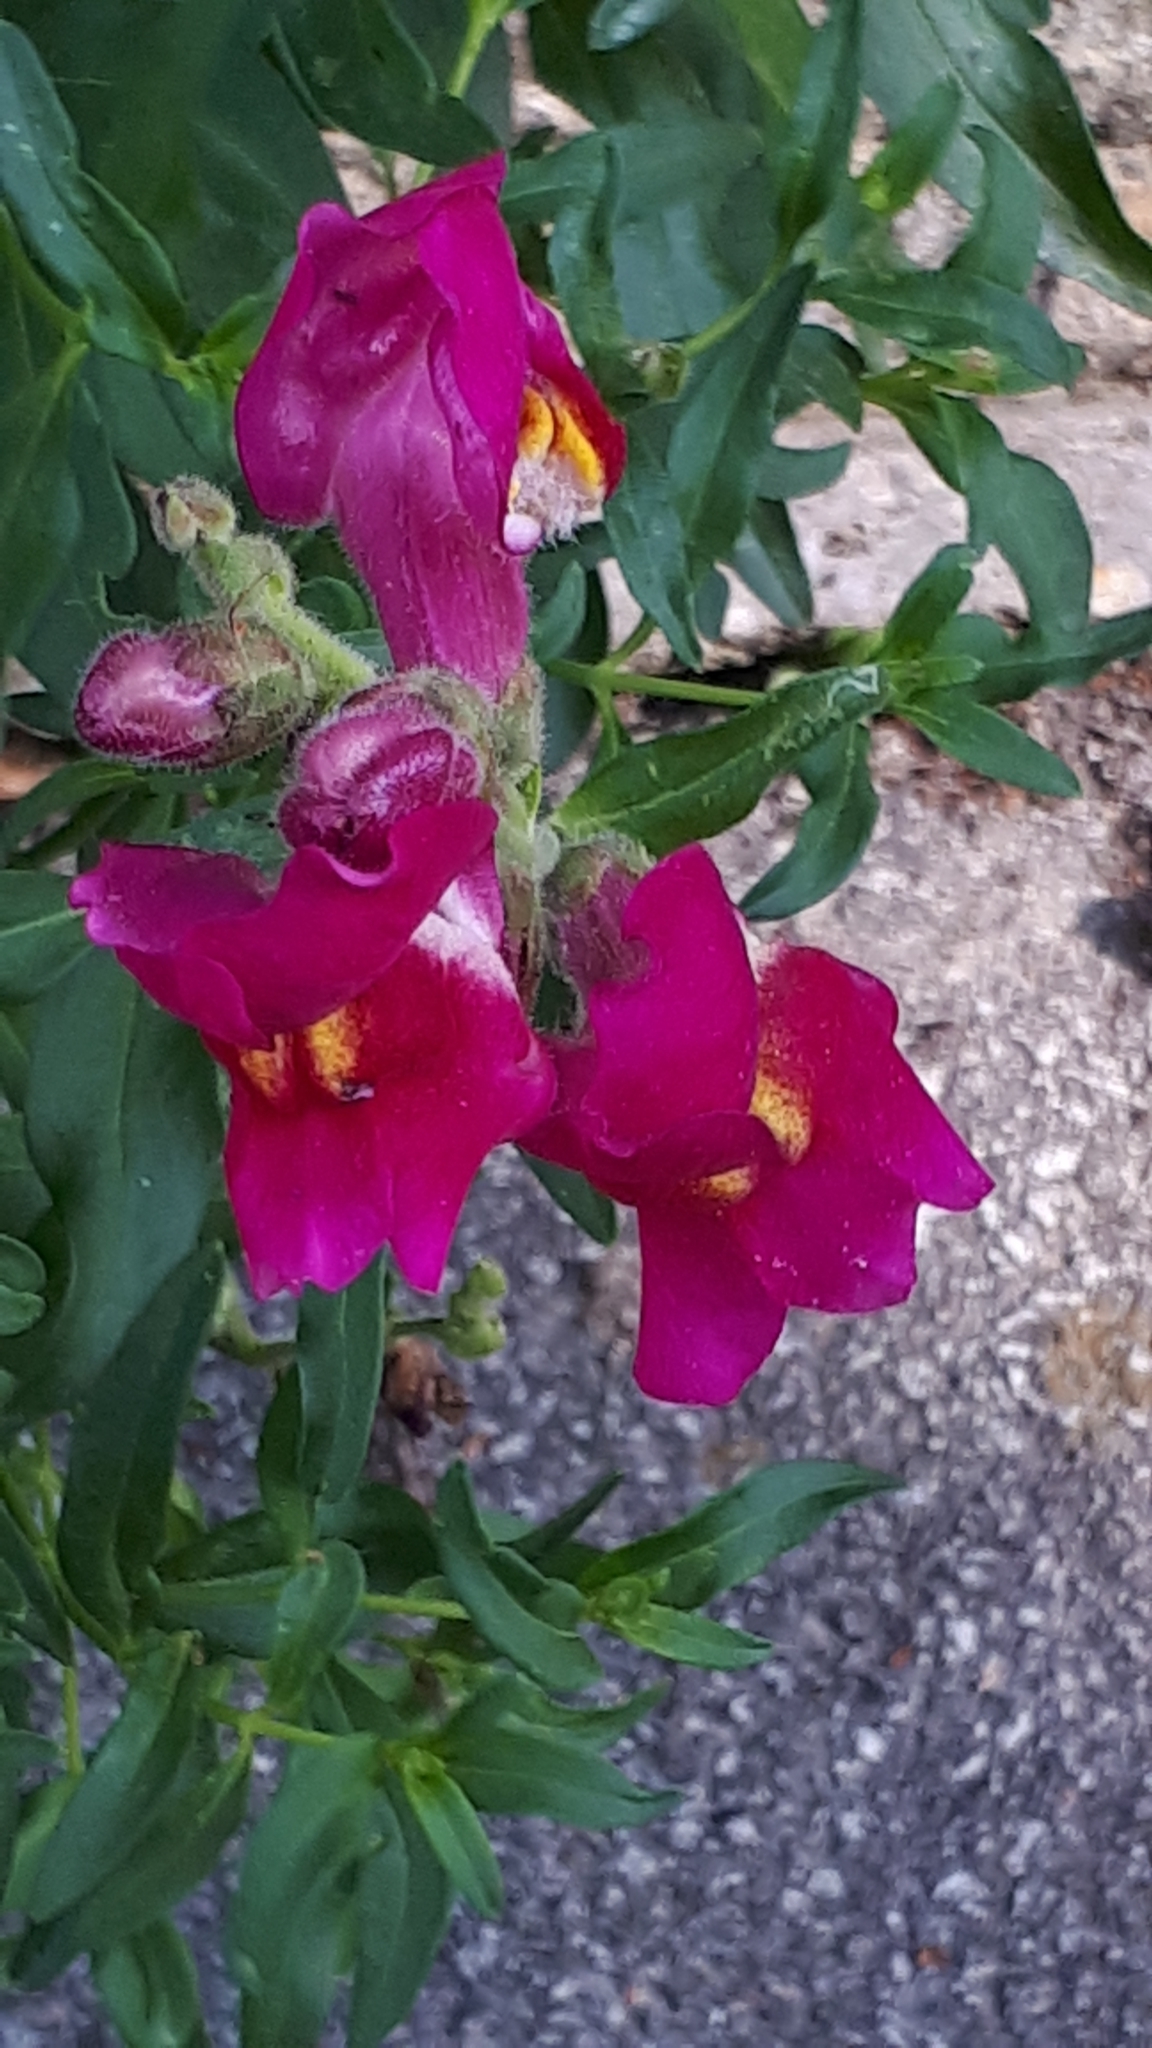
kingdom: Plantae
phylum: Tracheophyta
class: Magnoliopsida
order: Lamiales
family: Plantaginaceae
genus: Antirrhinum
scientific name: Antirrhinum majus
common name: Snapdragon
